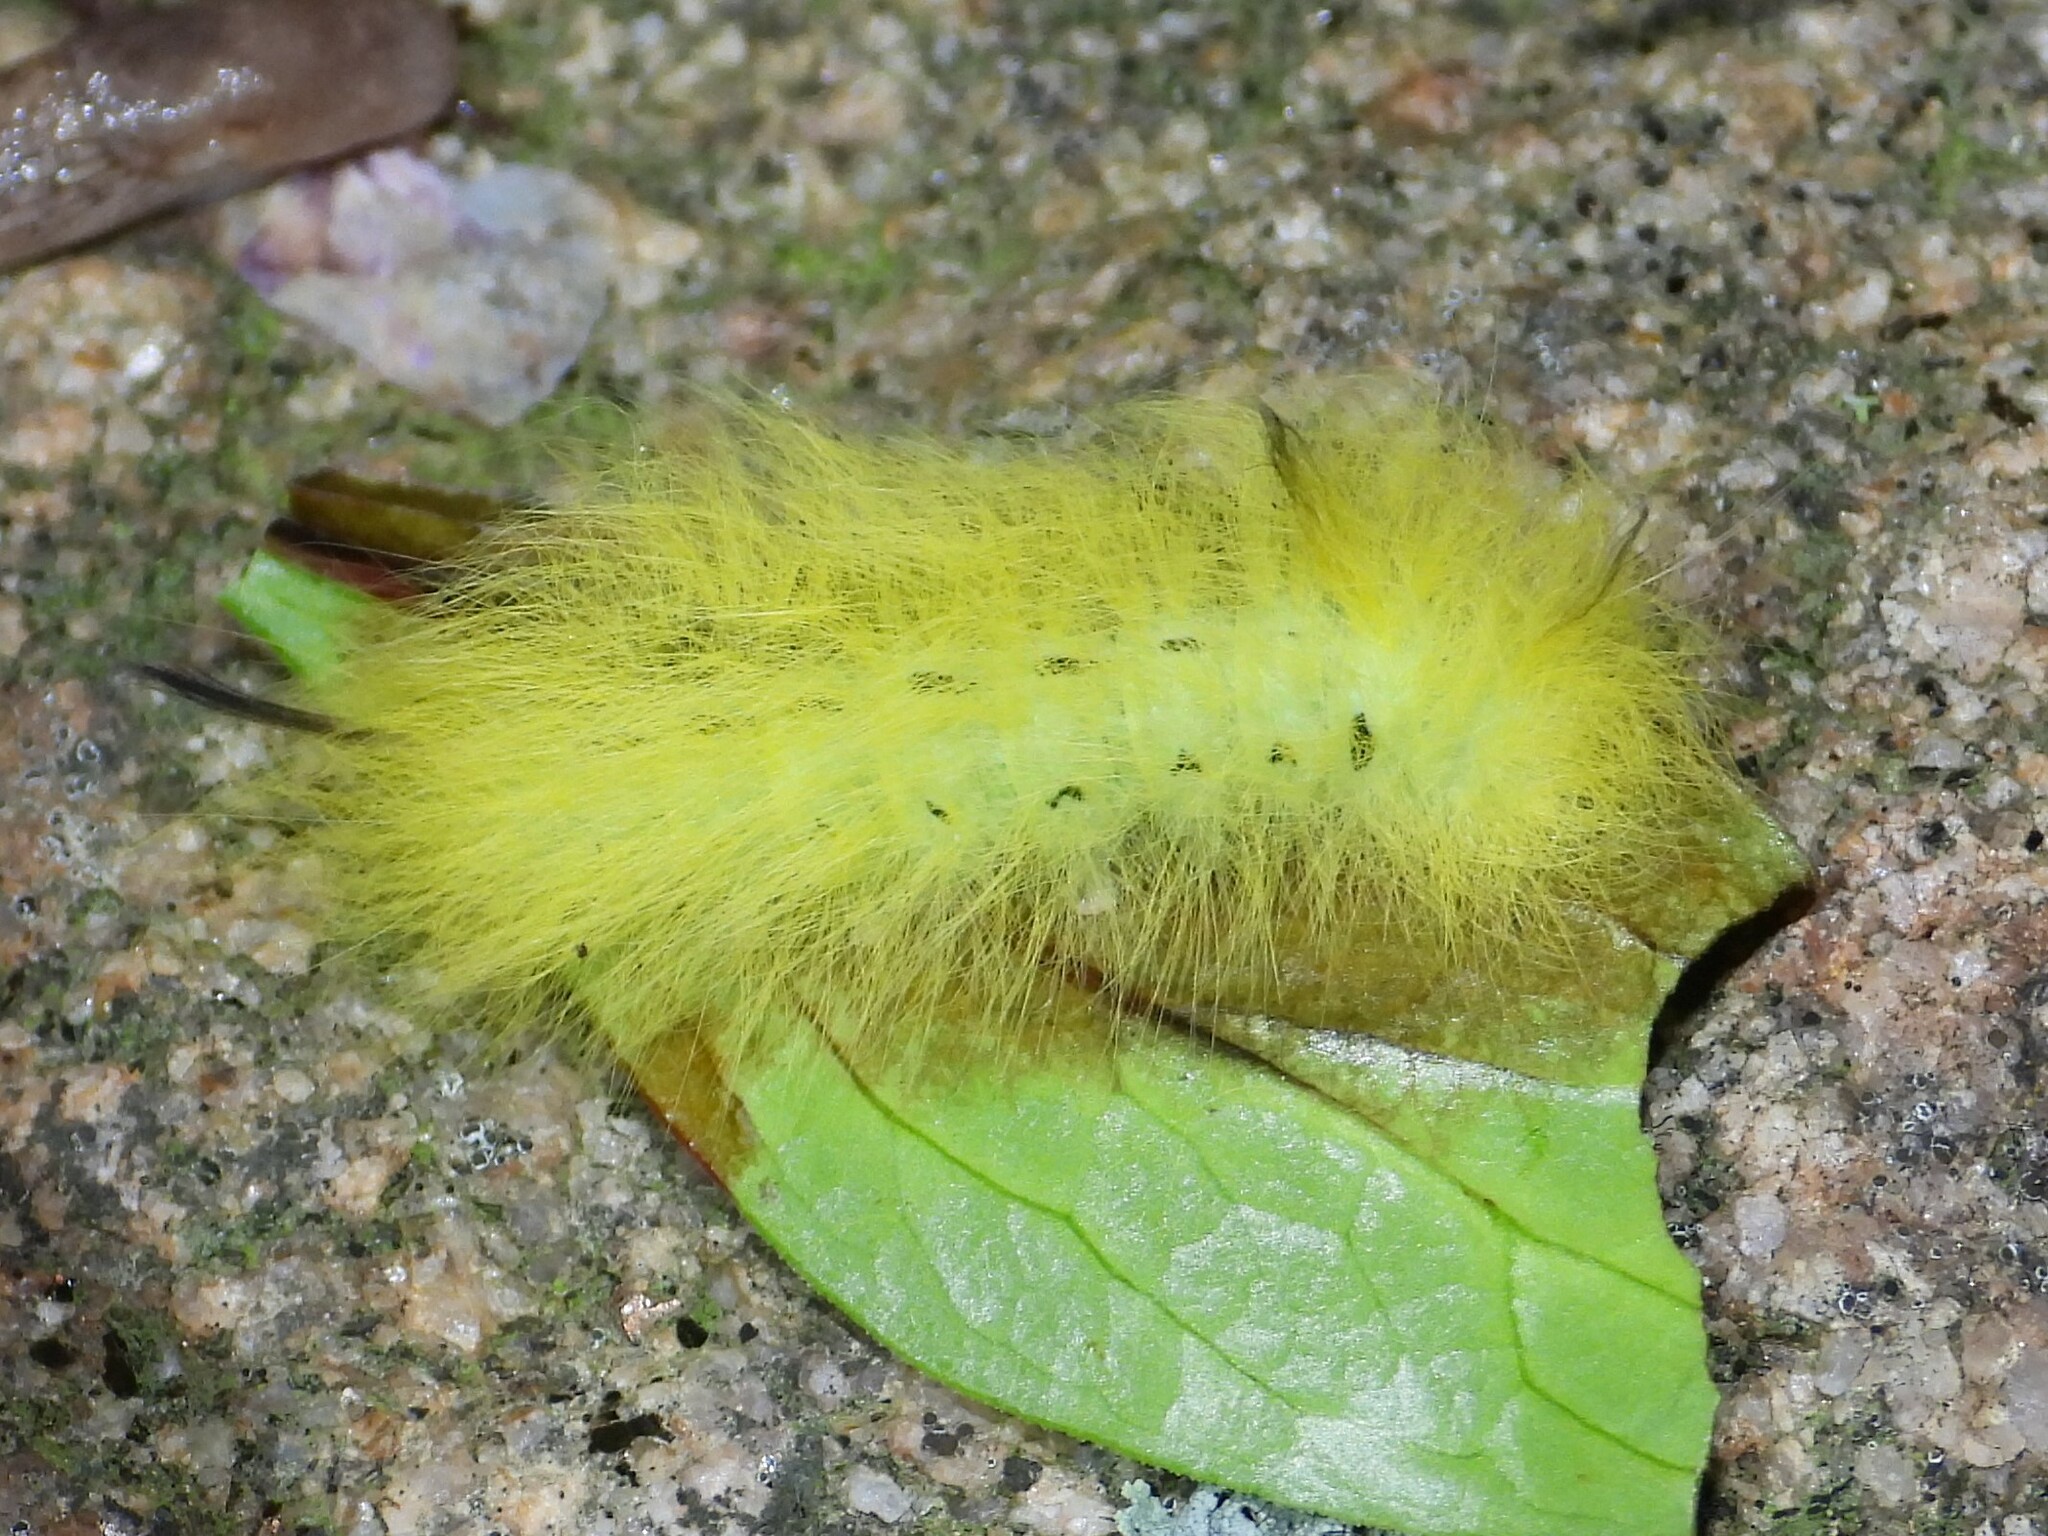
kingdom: Animalia
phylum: Arthropoda
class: Insecta
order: Lepidoptera
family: Apatelodidae
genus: Hygrochroa
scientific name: Hygrochroa Apatelodes torrefacta
